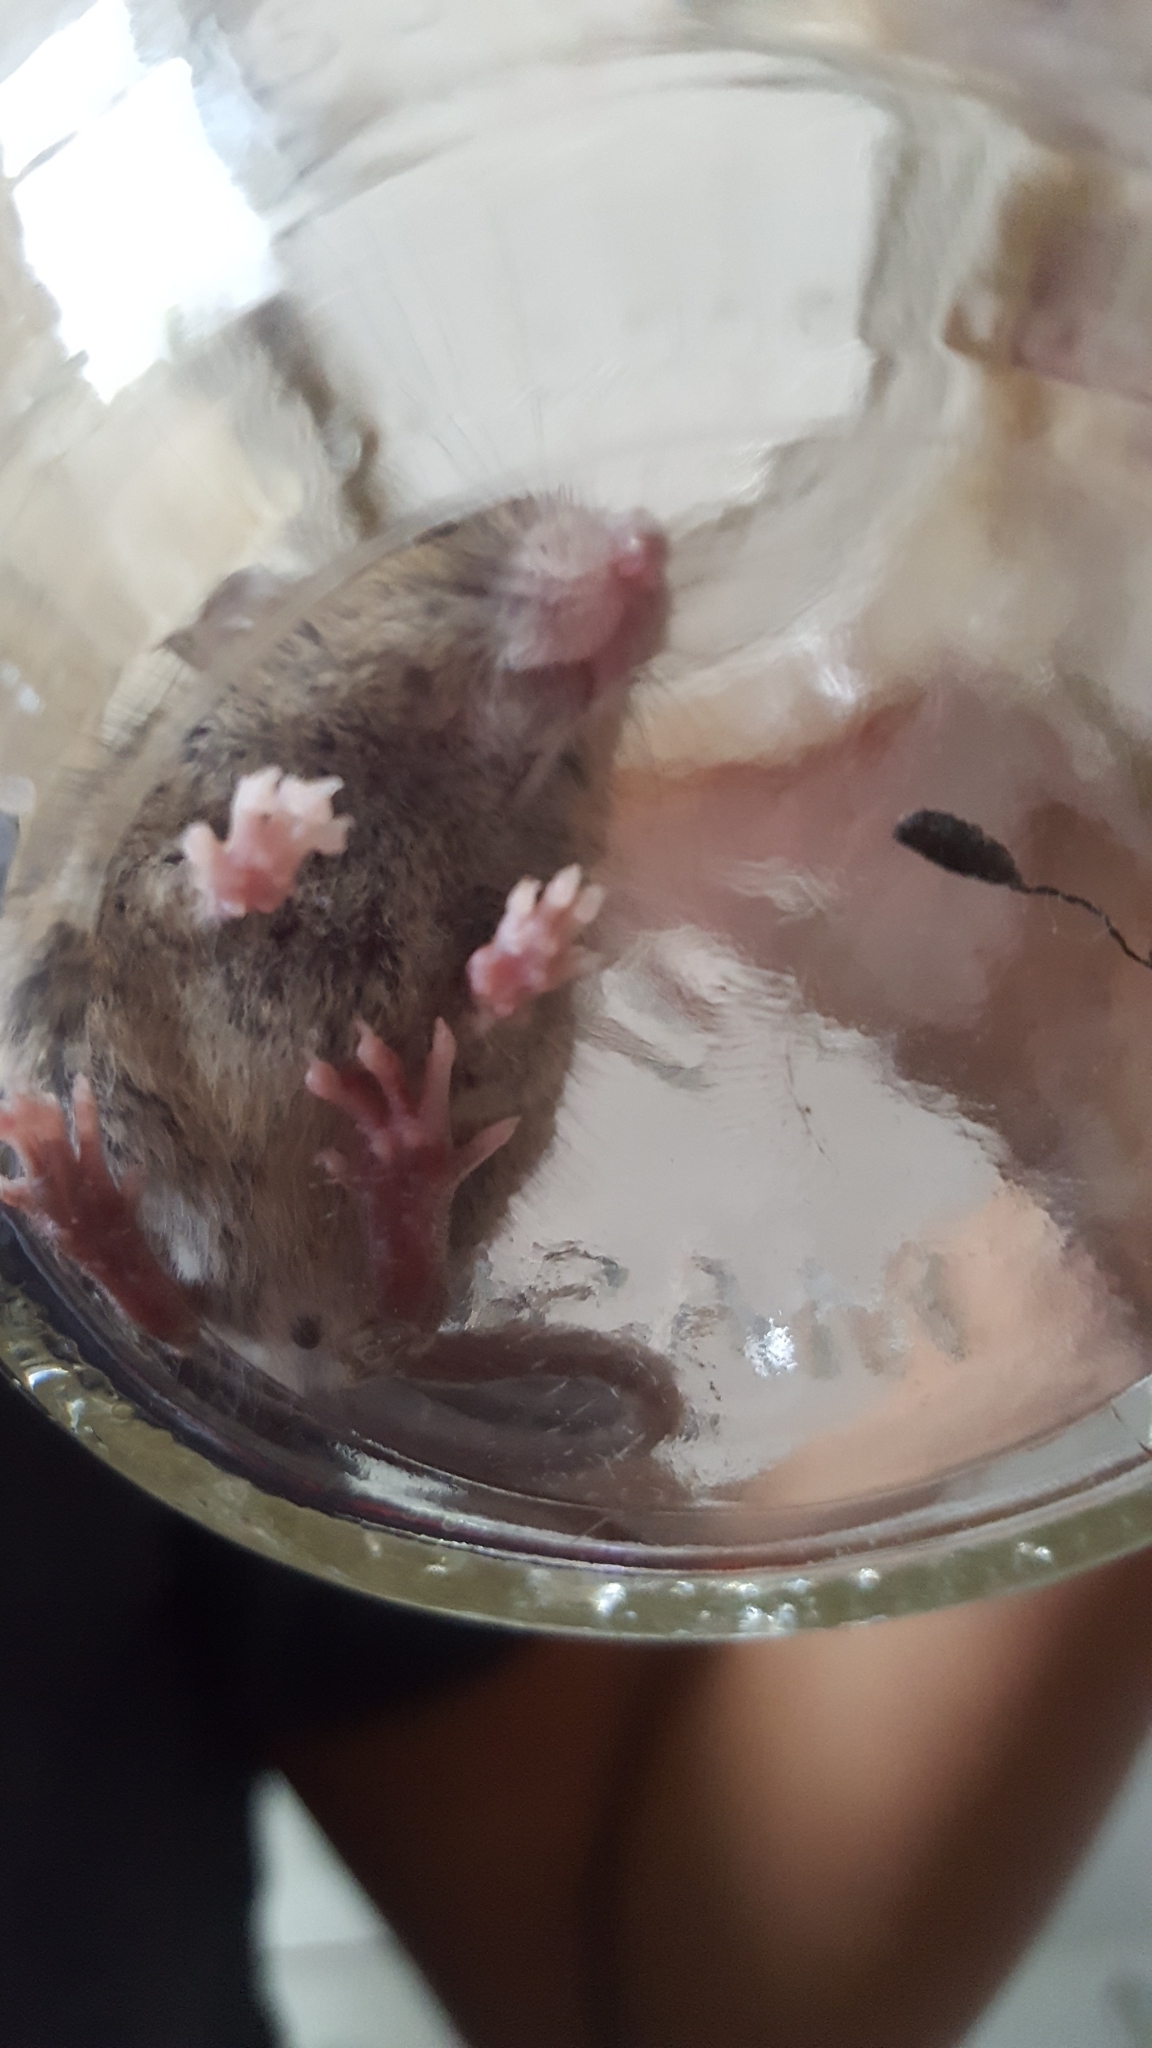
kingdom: Animalia
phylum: Chordata
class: Mammalia
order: Rodentia
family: Muridae
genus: Mus
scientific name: Mus musculus
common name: House mouse
